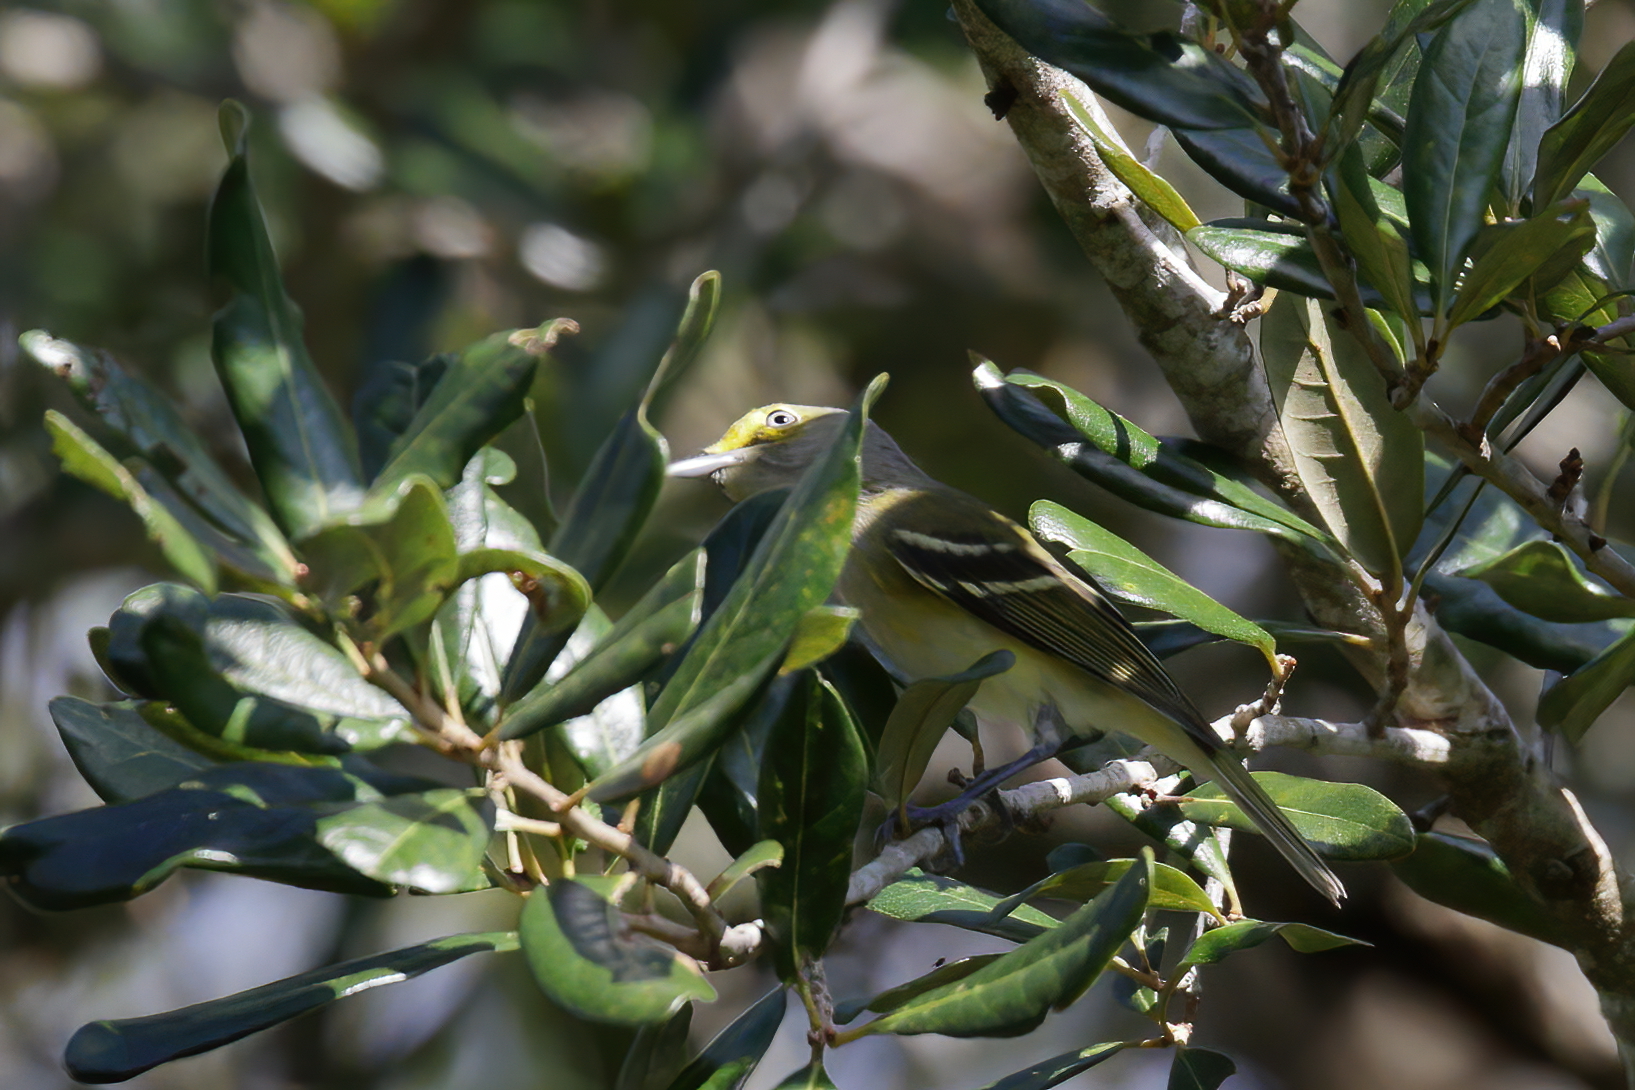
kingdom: Animalia
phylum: Chordata
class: Aves
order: Passeriformes
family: Vireonidae
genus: Vireo
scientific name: Vireo griseus
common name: White-eyed vireo
